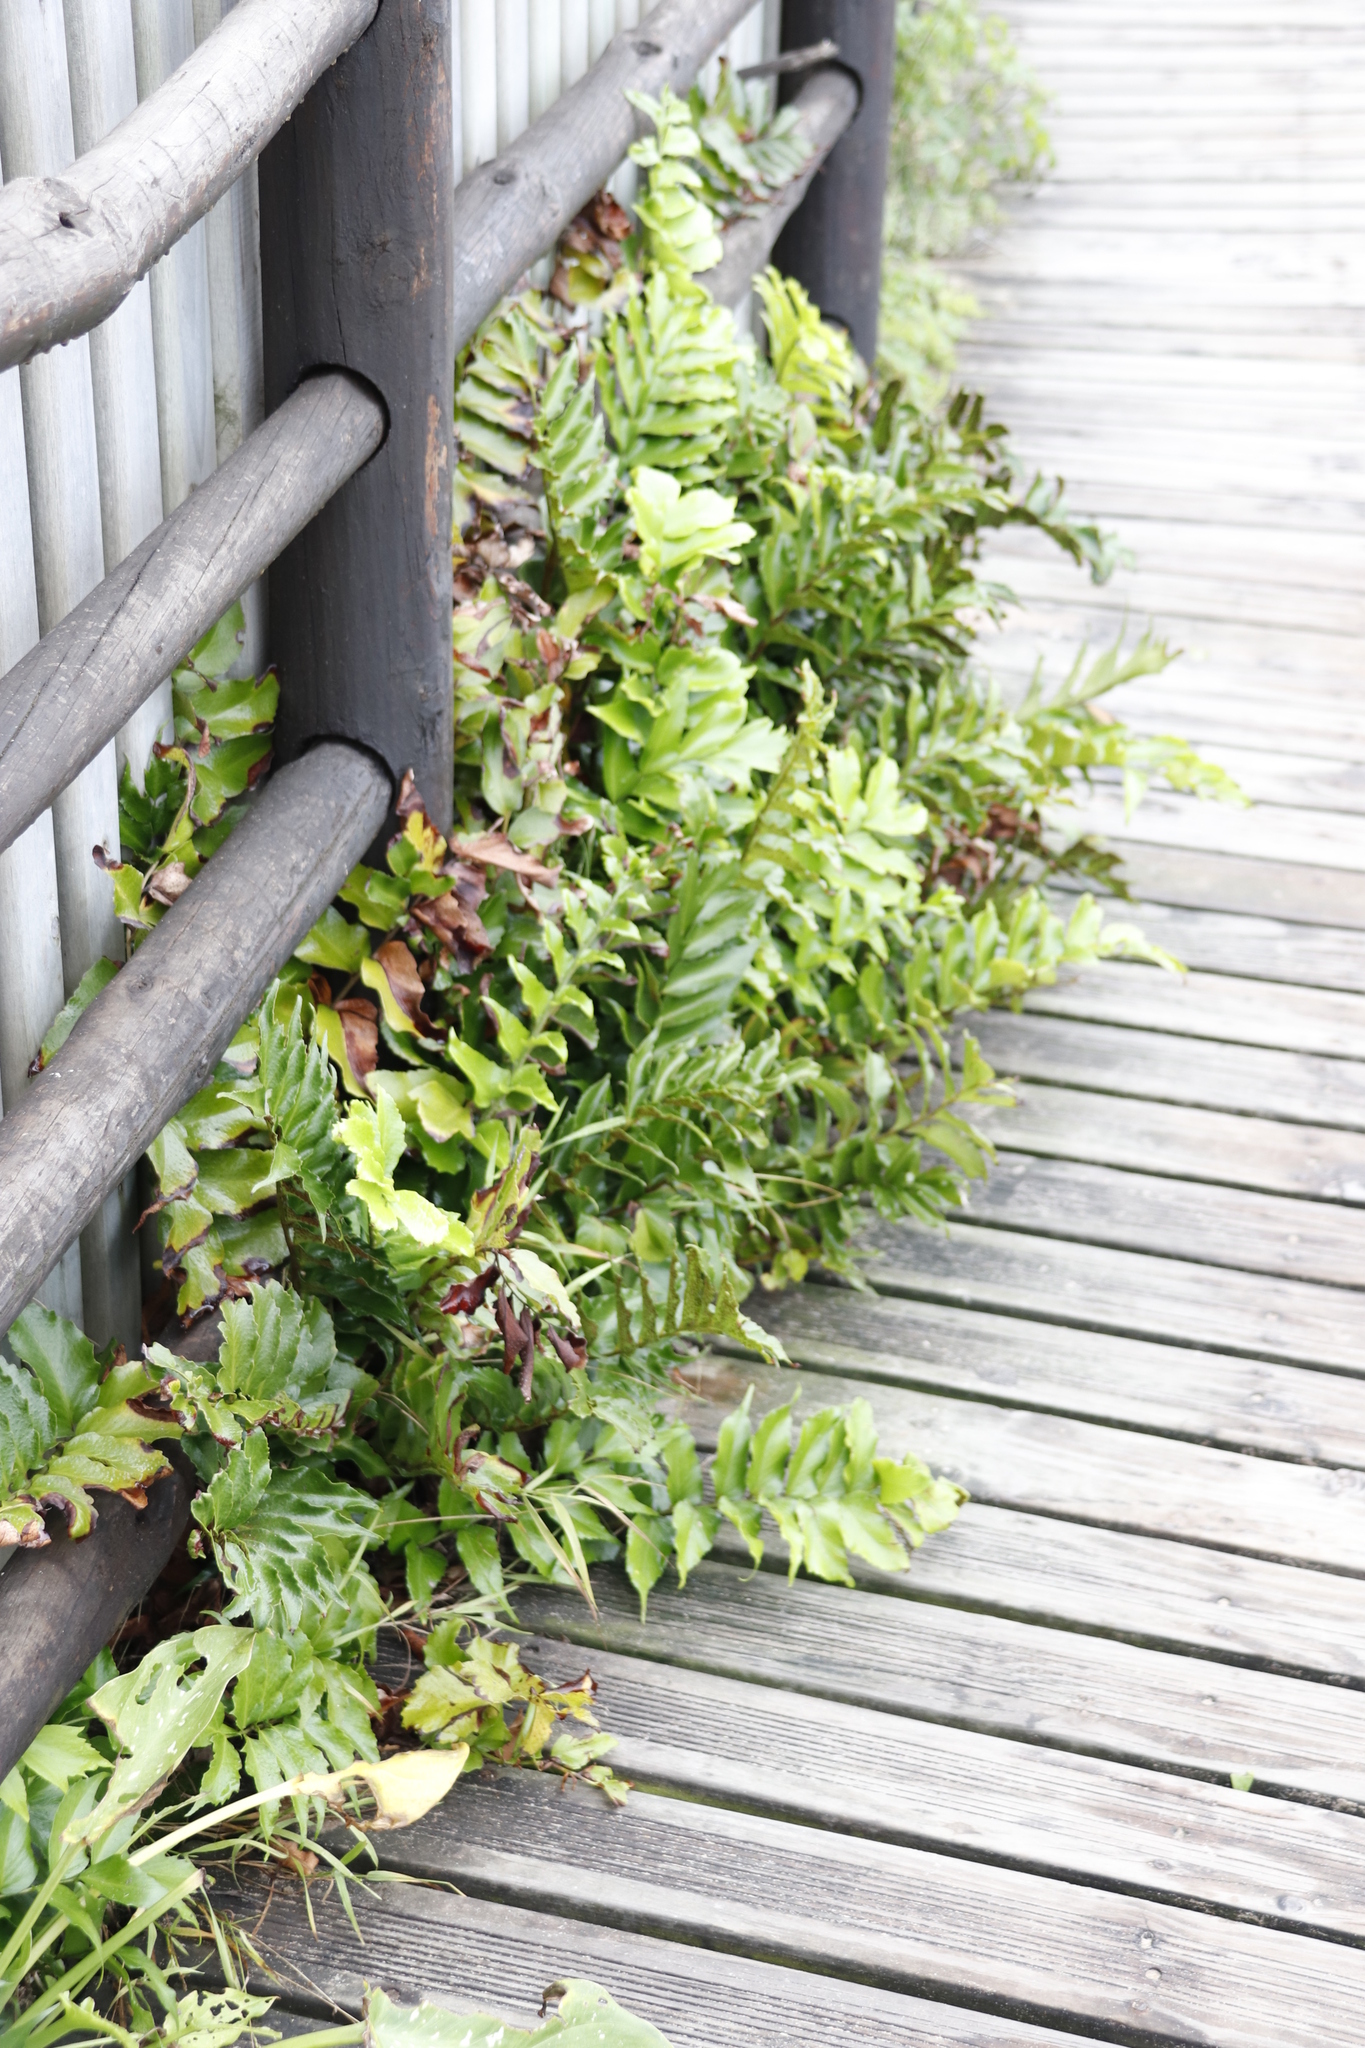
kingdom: Plantae
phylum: Tracheophyta
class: Polypodiopsida
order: Polypodiales
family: Dryopteridaceae
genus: Cyrtomium
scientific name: Cyrtomium falcatum
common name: House holly-fern
